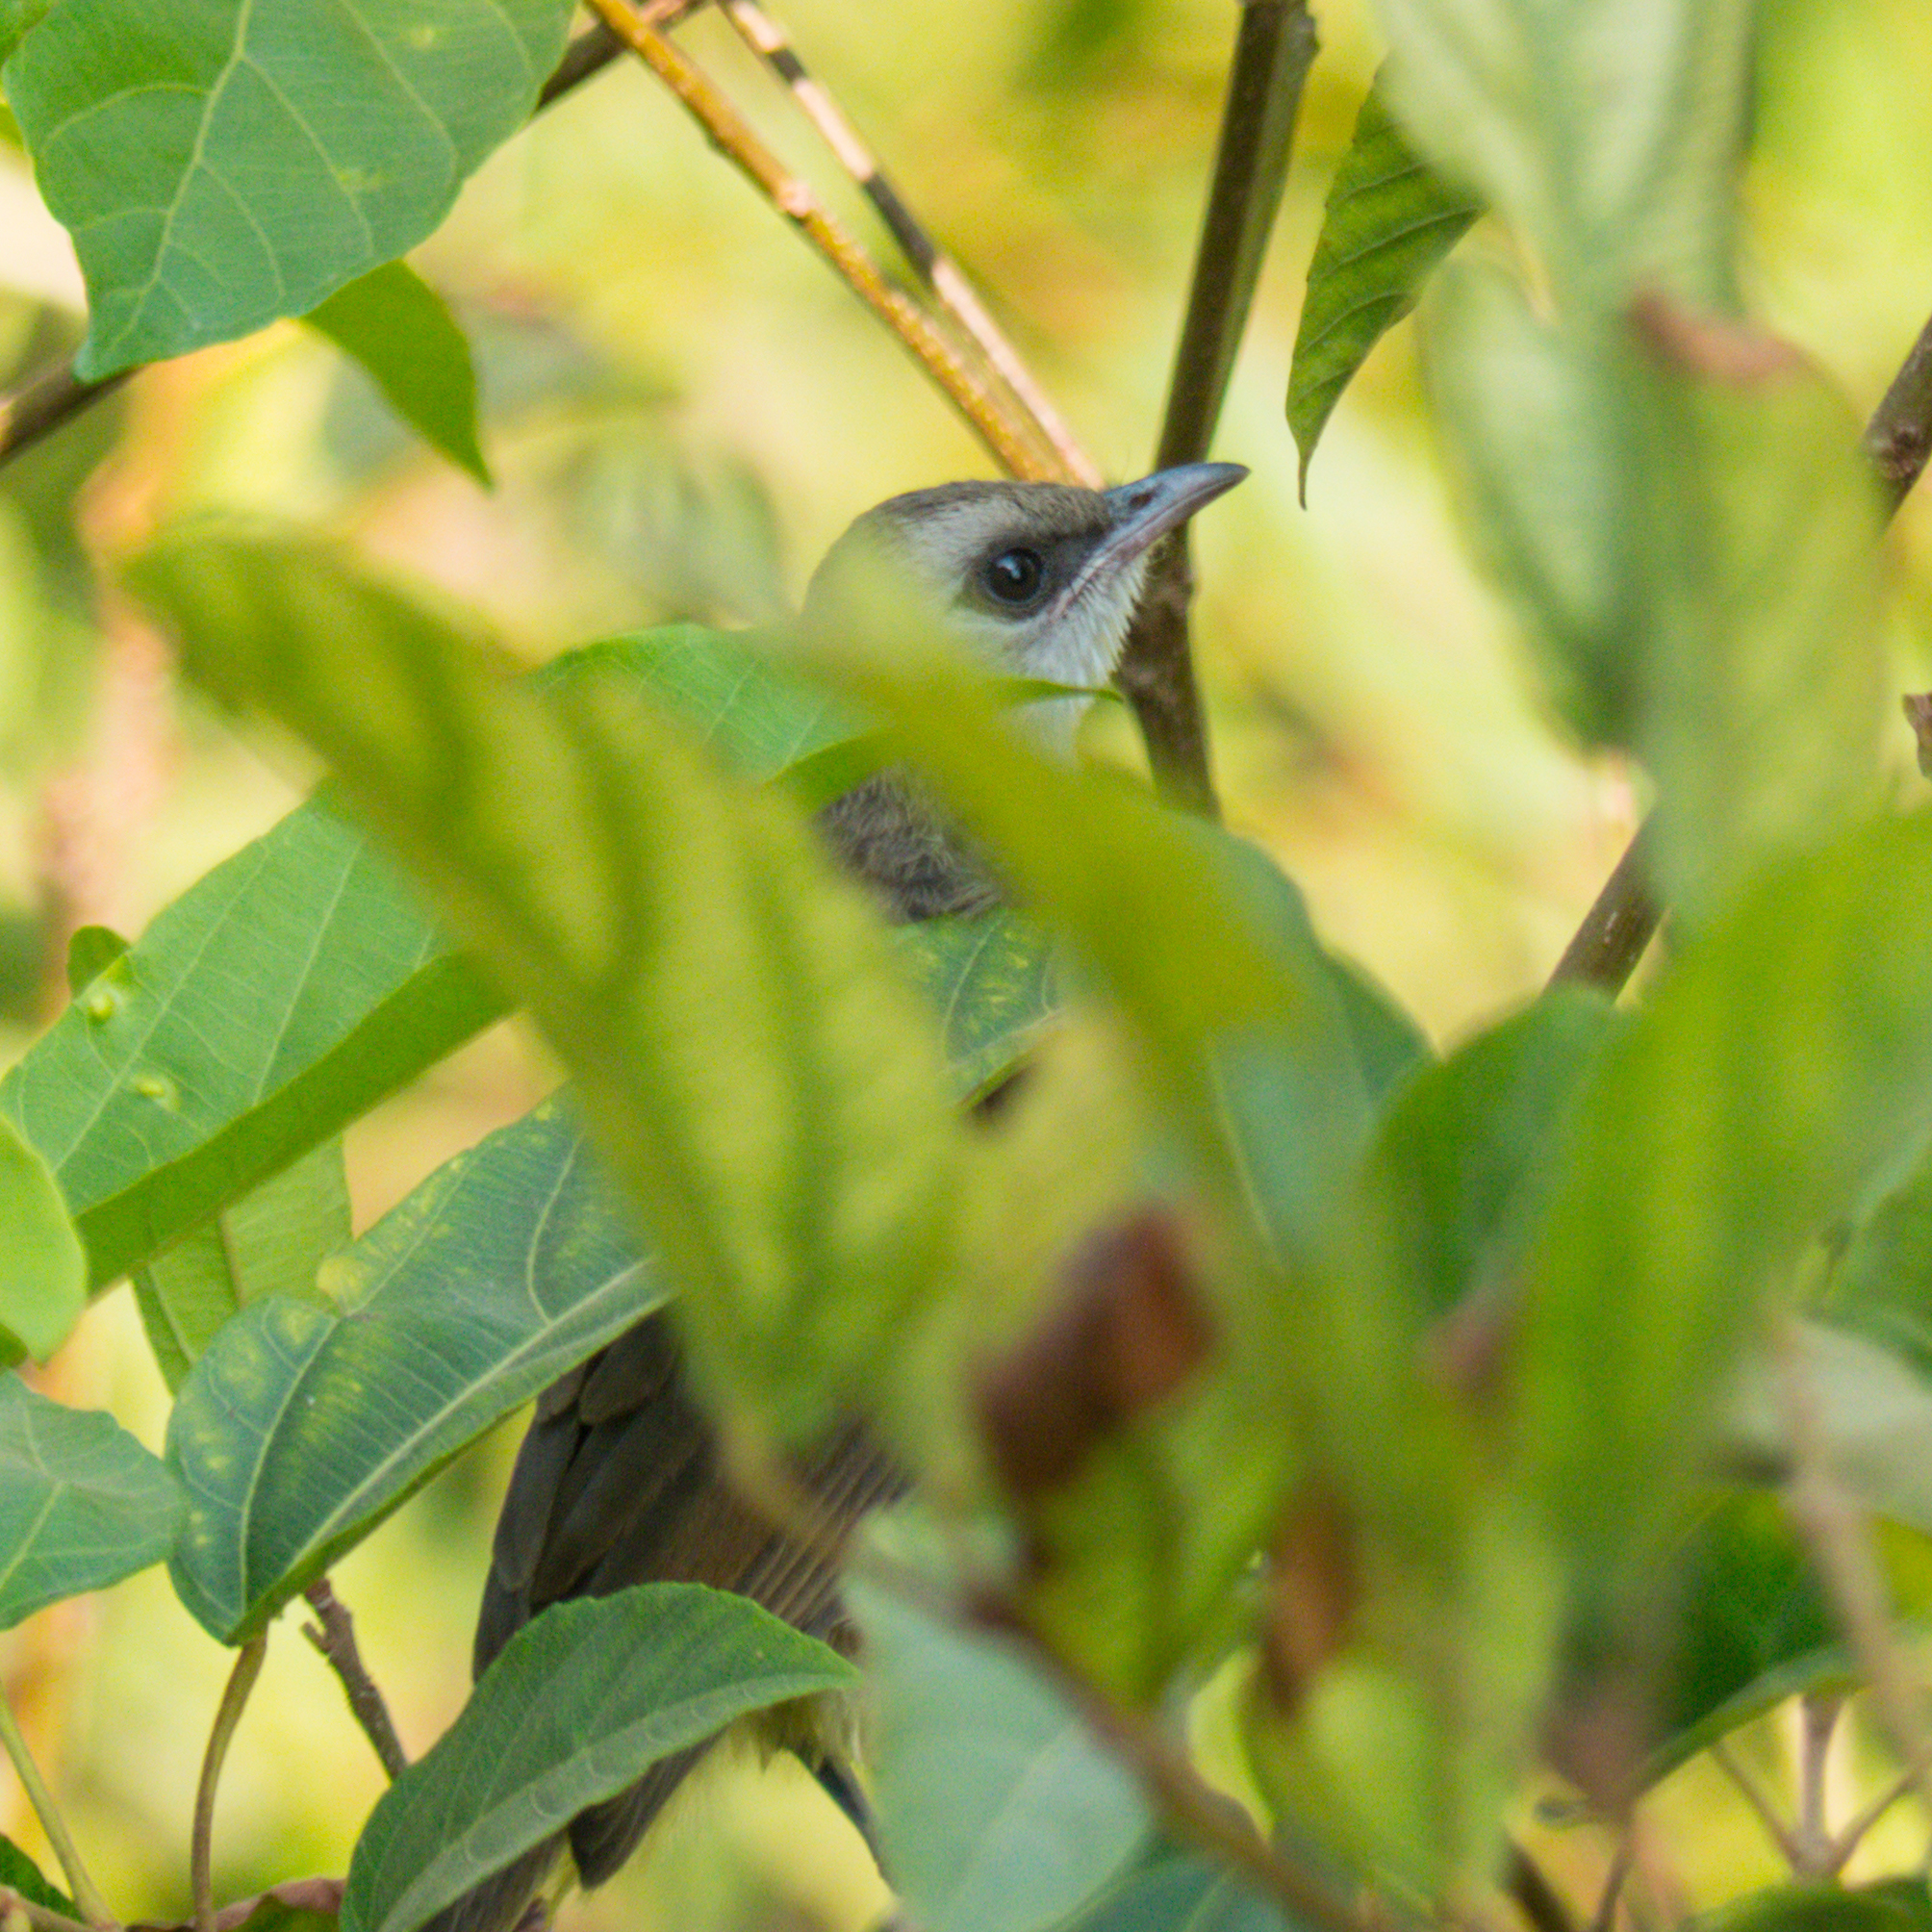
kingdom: Animalia
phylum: Chordata
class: Aves
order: Passeriformes
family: Pycnonotidae
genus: Pycnonotus
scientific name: Pycnonotus goiavier
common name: Yellow-vented bulbul
